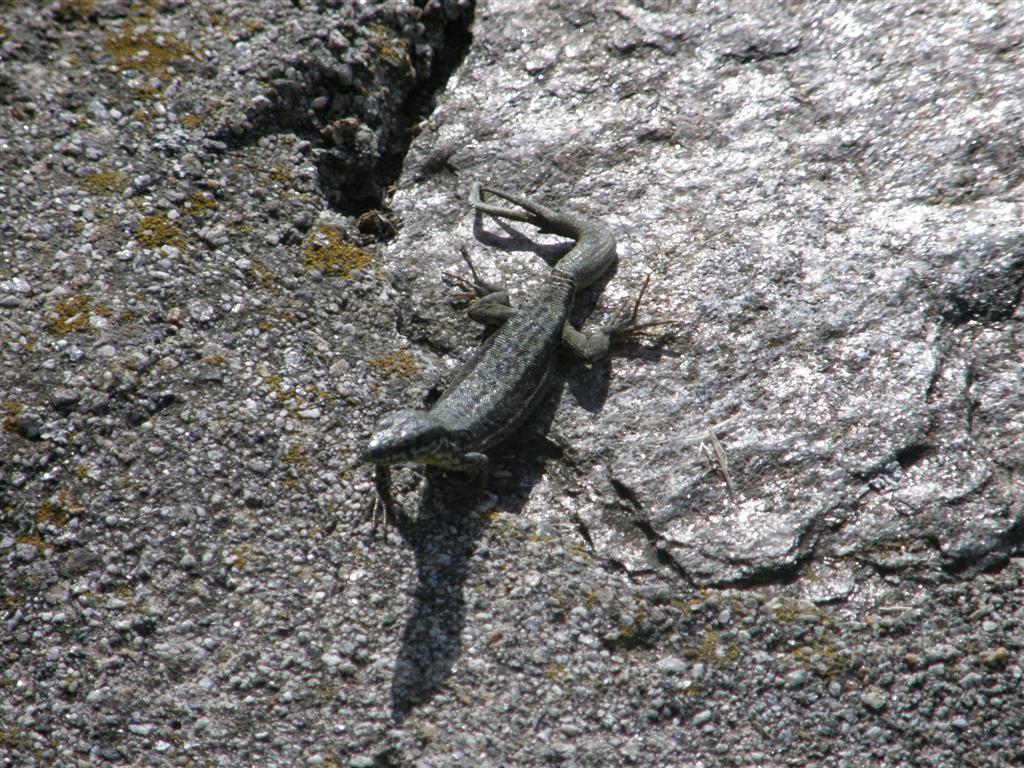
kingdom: Animalia
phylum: Chordata
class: Squamata
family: Lacertidae
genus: Podarcis
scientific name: Podarcis muralis
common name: Common wall lizard
